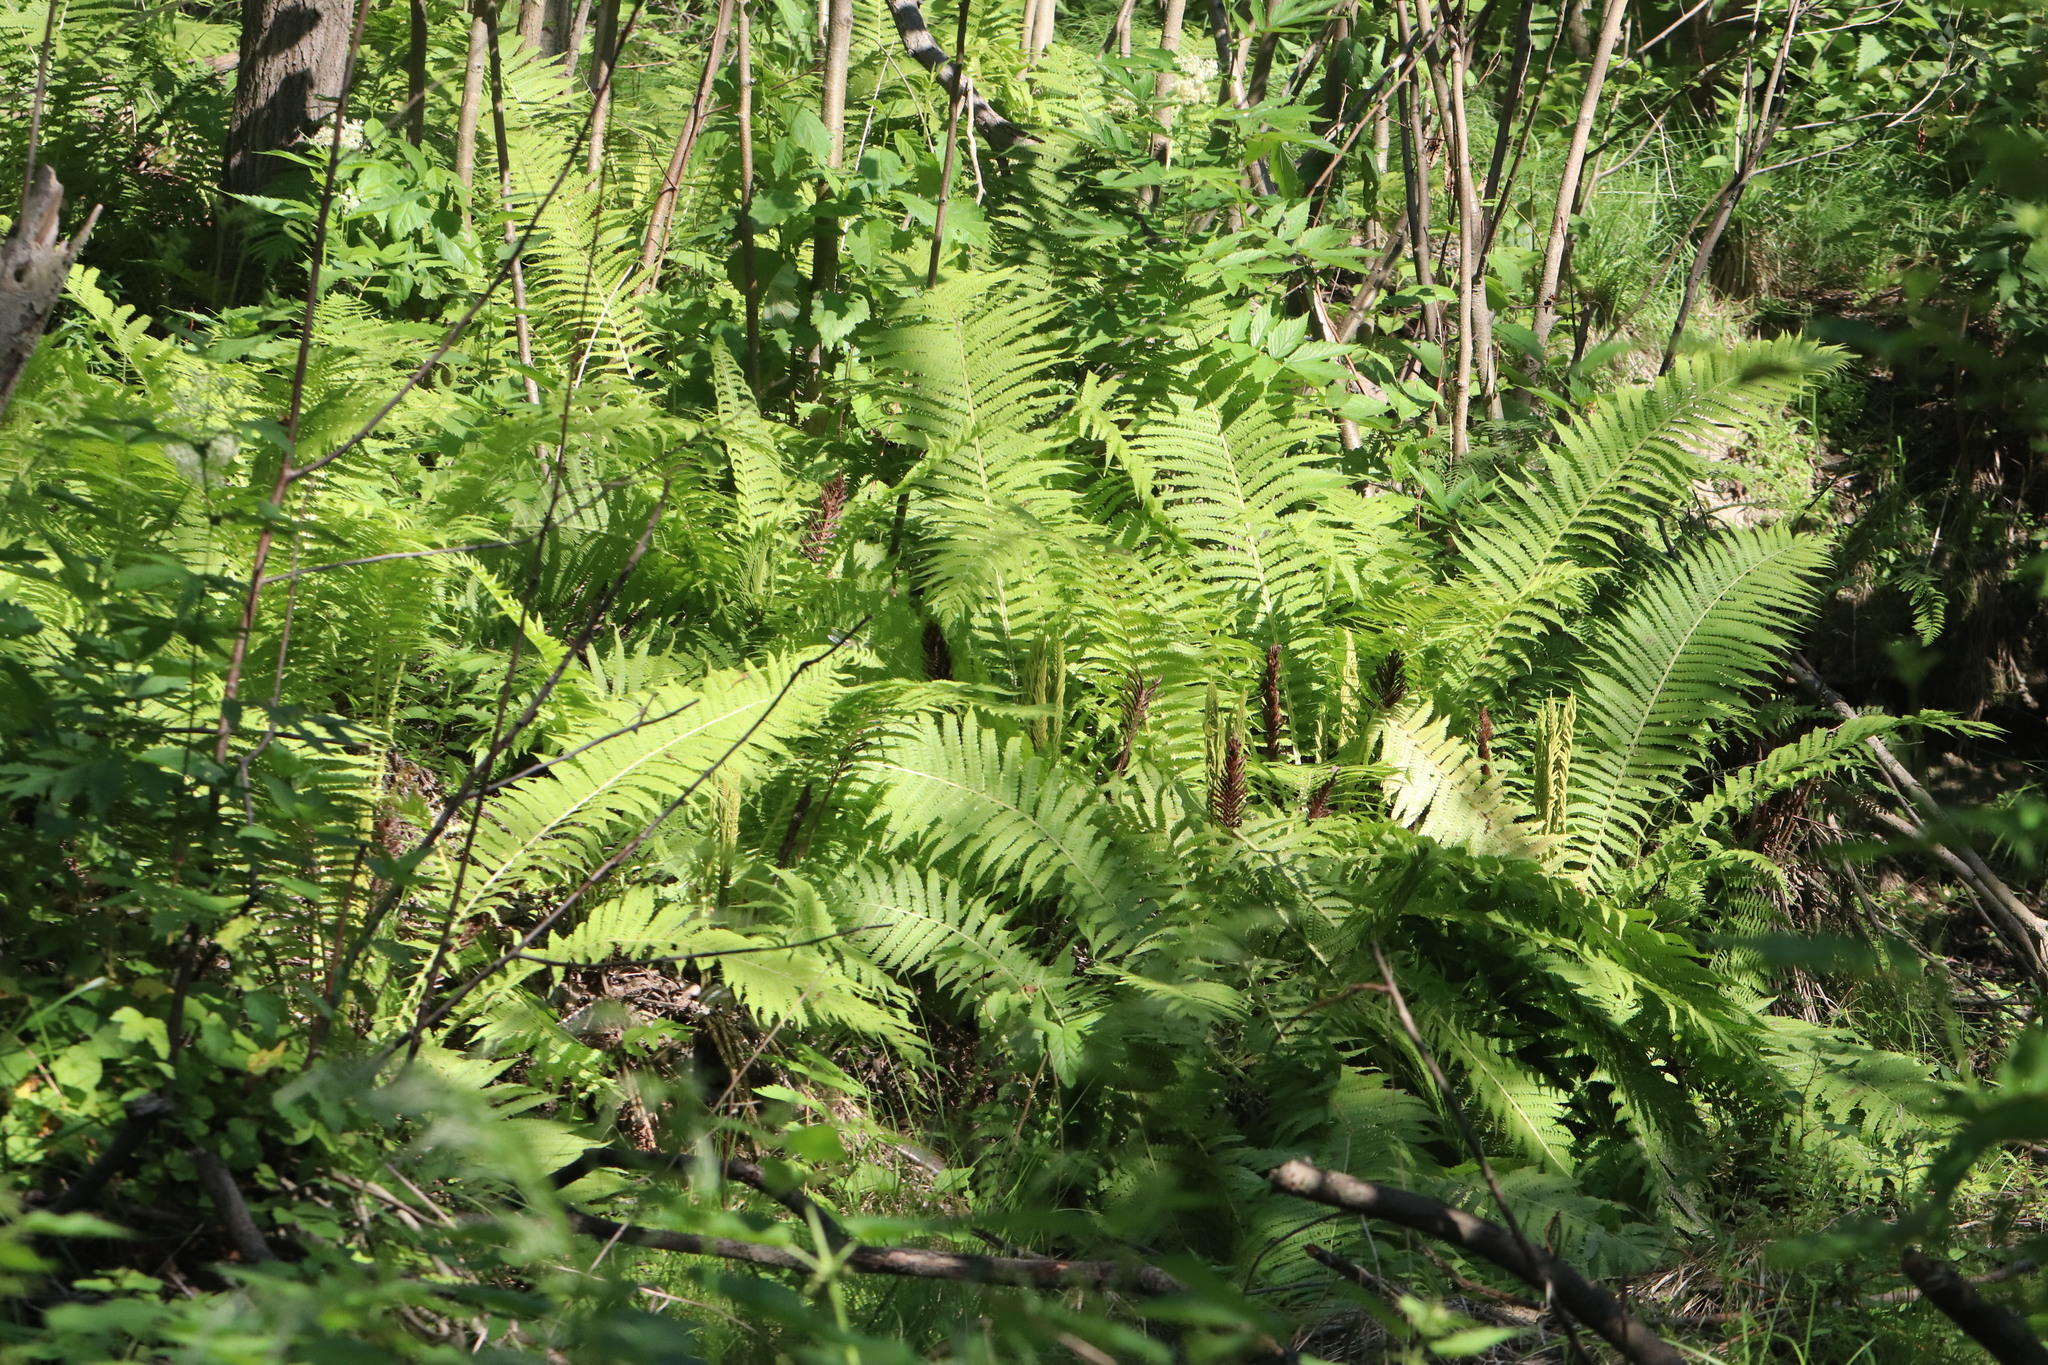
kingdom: Plantae
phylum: Tracheophyta
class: Polypodiopsida
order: Polypodiales
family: Onocleaceae
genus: Matteuccia
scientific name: Matteuccia struthiopteris
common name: Ostrich fern
